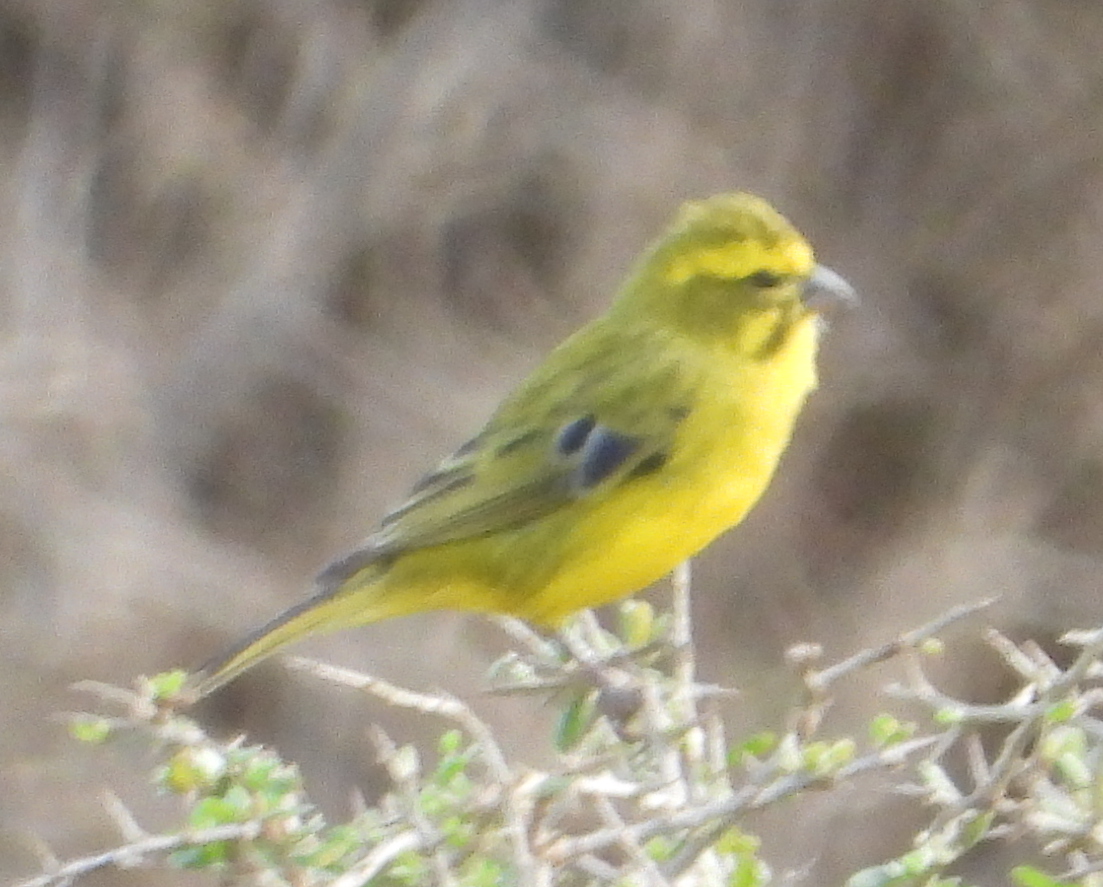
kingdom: Animalia
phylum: Chordata
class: Aves
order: Passeriformes
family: Fringillidae
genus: Crithagra
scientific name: Crithagra flaviventris
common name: Yellow canary
